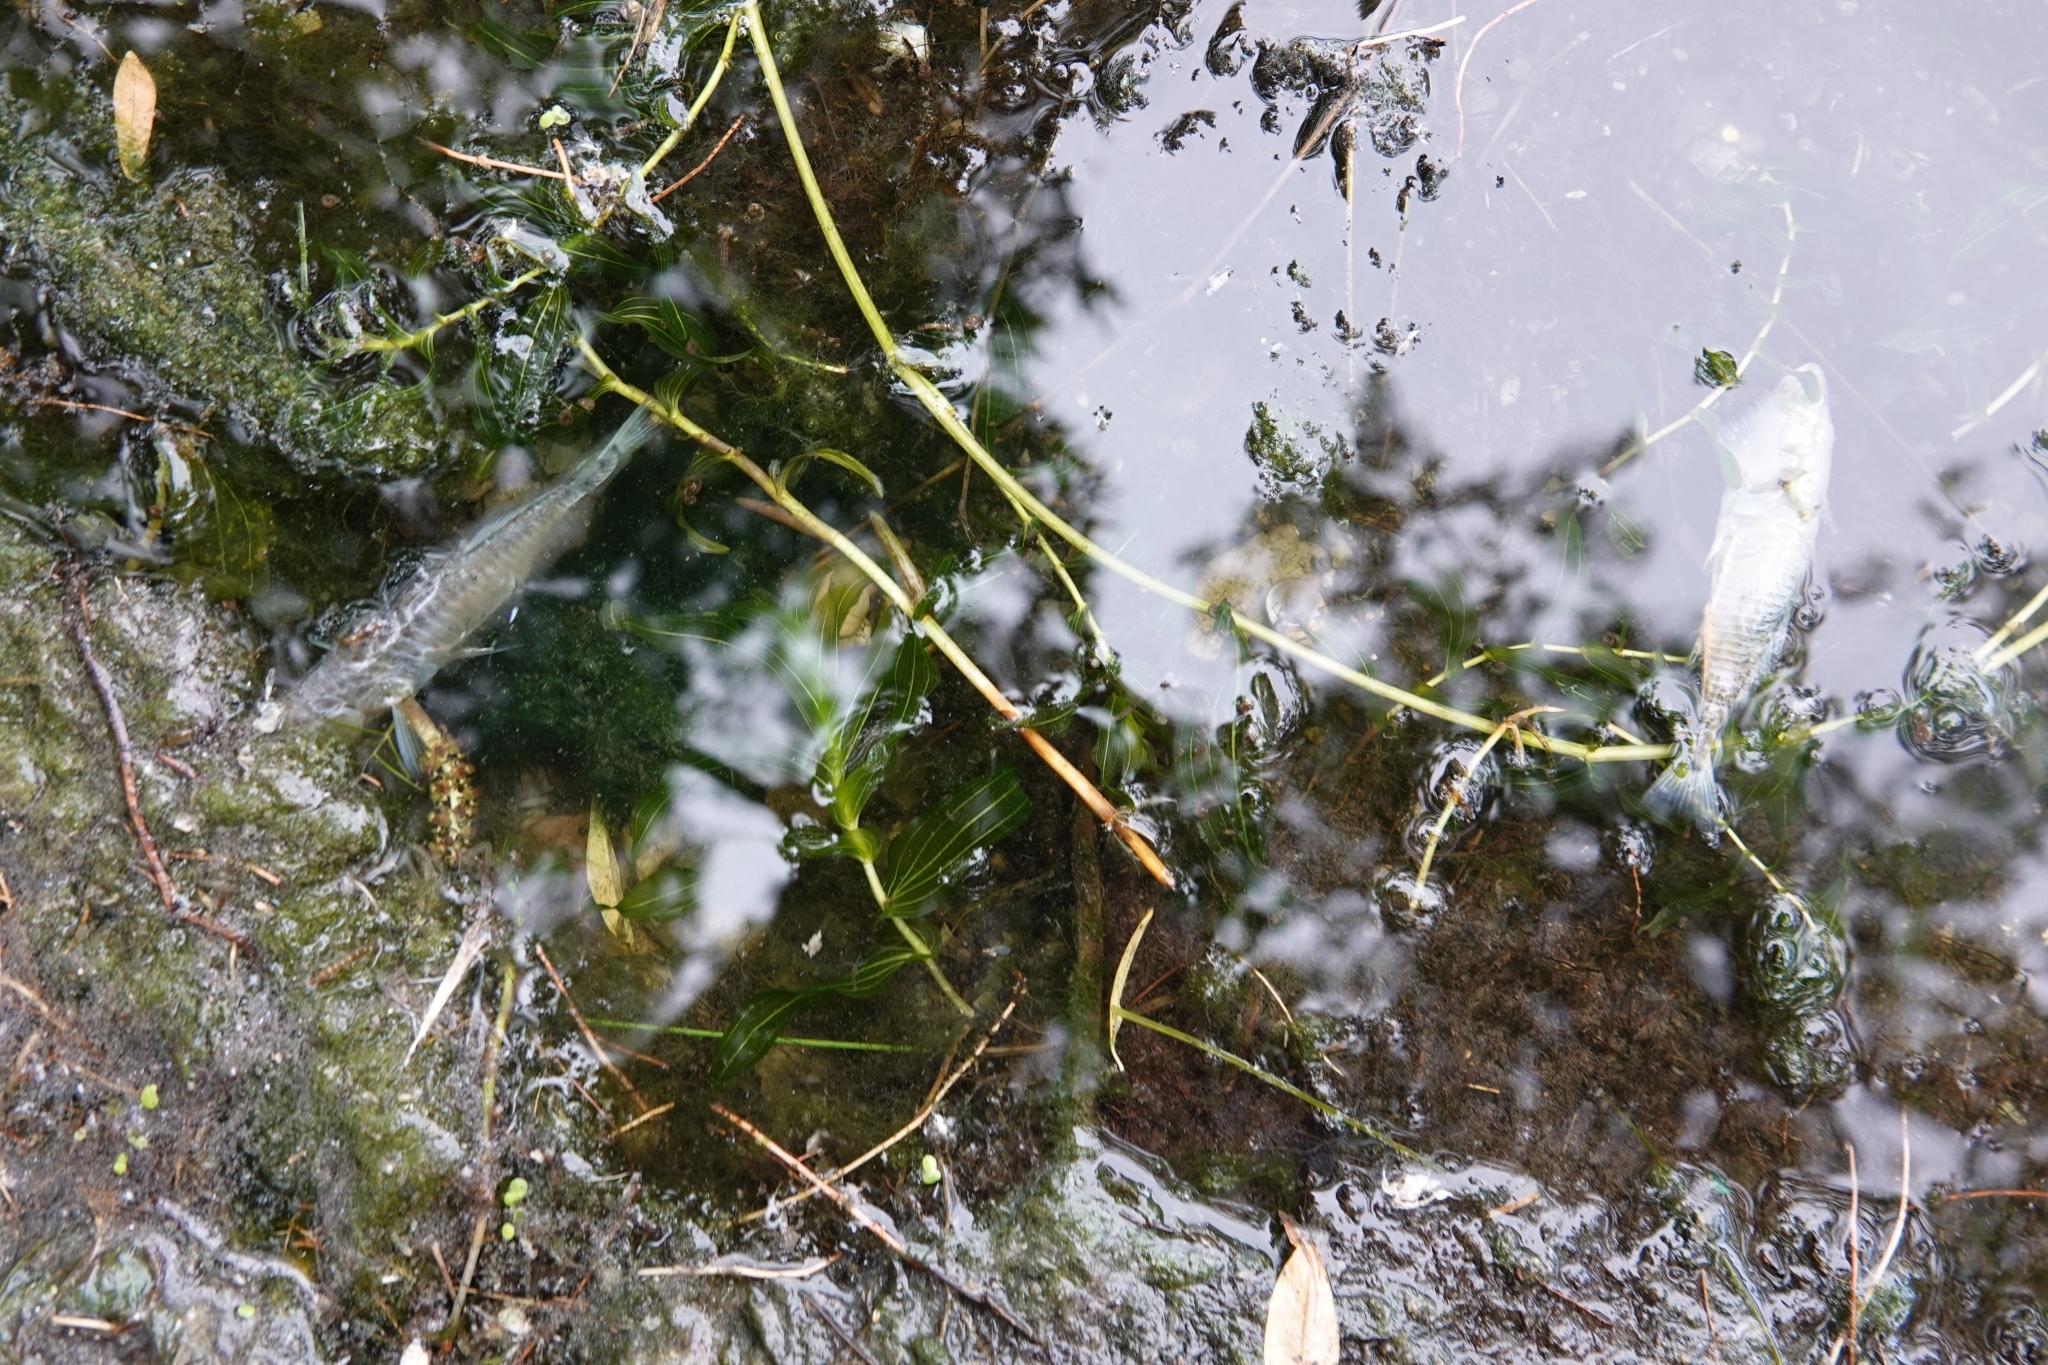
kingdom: Plantae
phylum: Tracheophyta
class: Liliopsida
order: Alismatales
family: Potamogetonaceae
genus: Potamogeton
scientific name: Potamogeton perfoliatus
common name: Perfoliate pondweed
